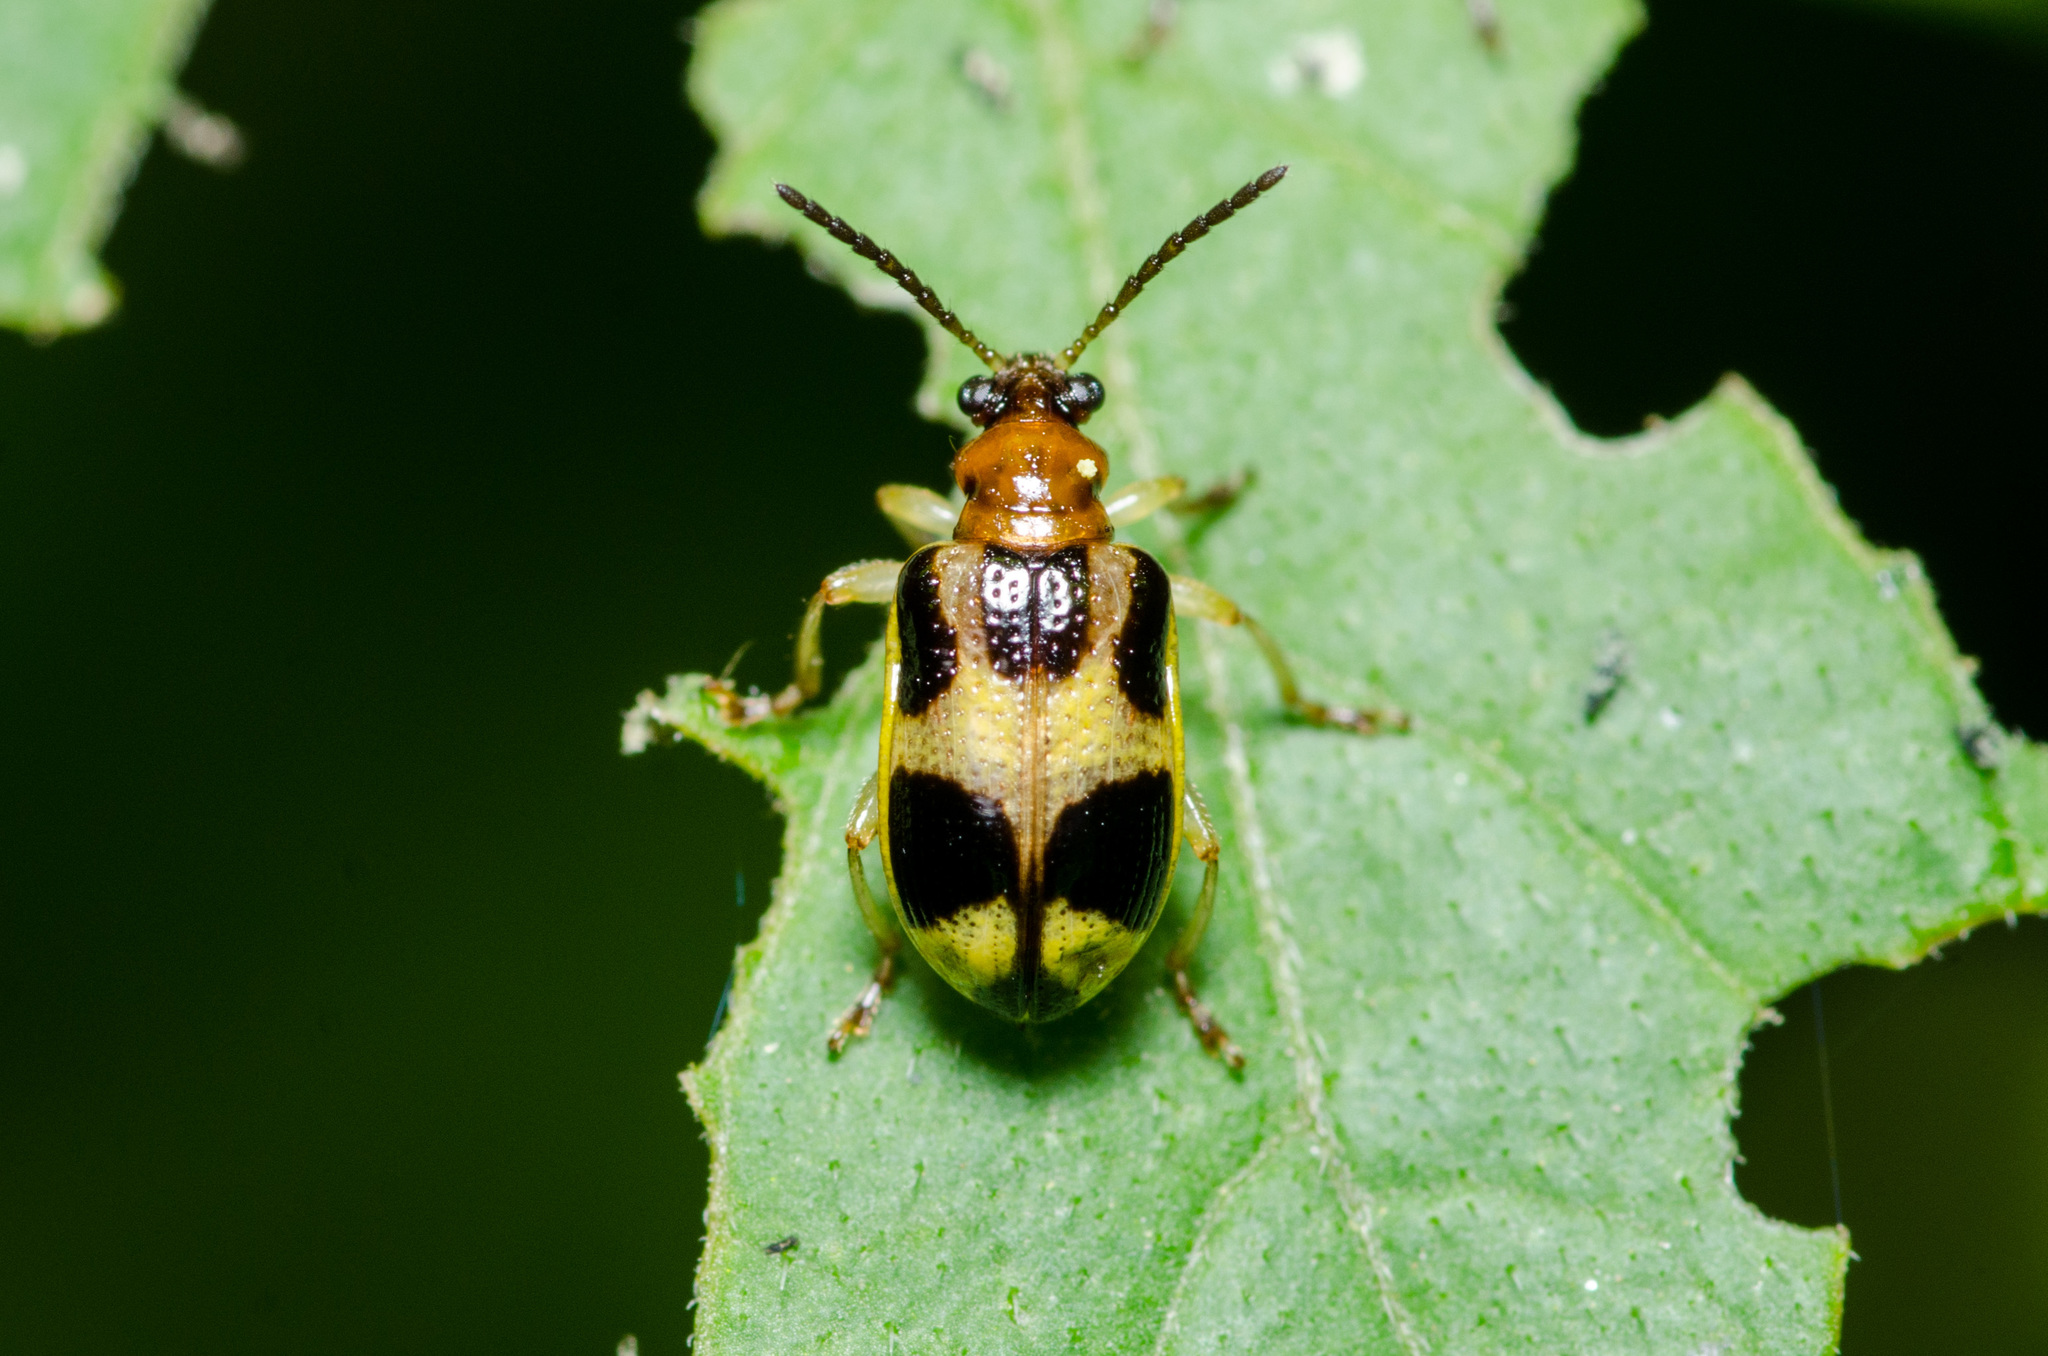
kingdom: Animalia
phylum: Arthropoda
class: Insecta
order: Coleoptera
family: Chrysomelidae
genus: Lema
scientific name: Lema opulenta
